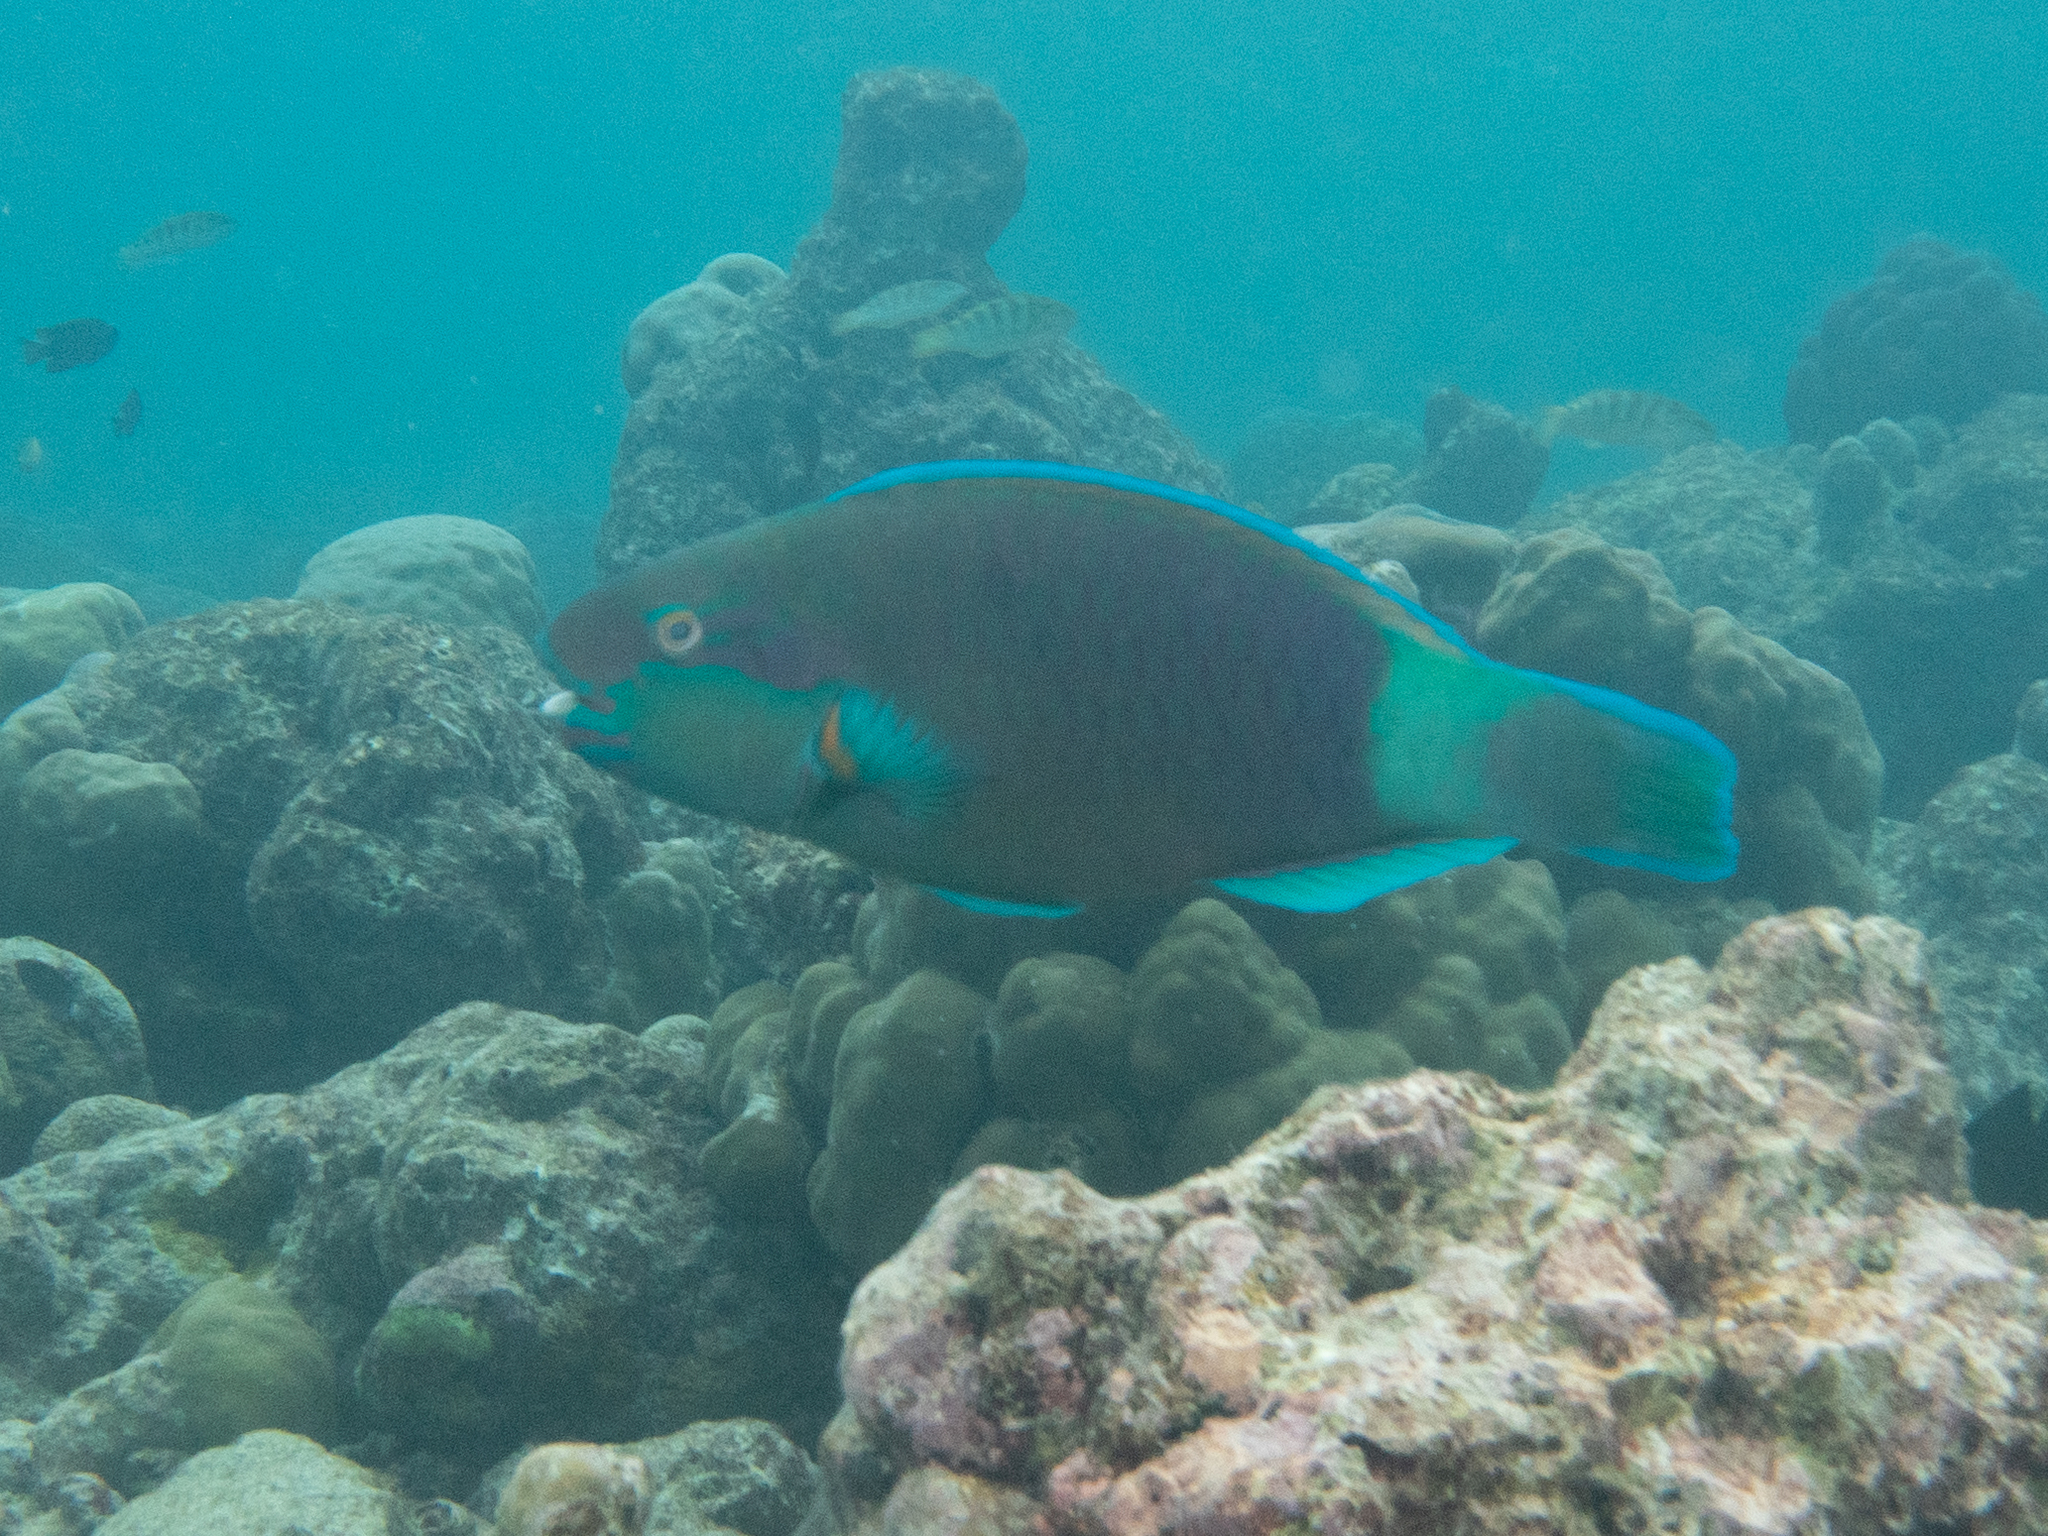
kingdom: Animalia
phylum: Chordata
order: Perciformes
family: Scaridae
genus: Chlorurus
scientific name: Chlorurus sordidus
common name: Bullethead parrotfish
